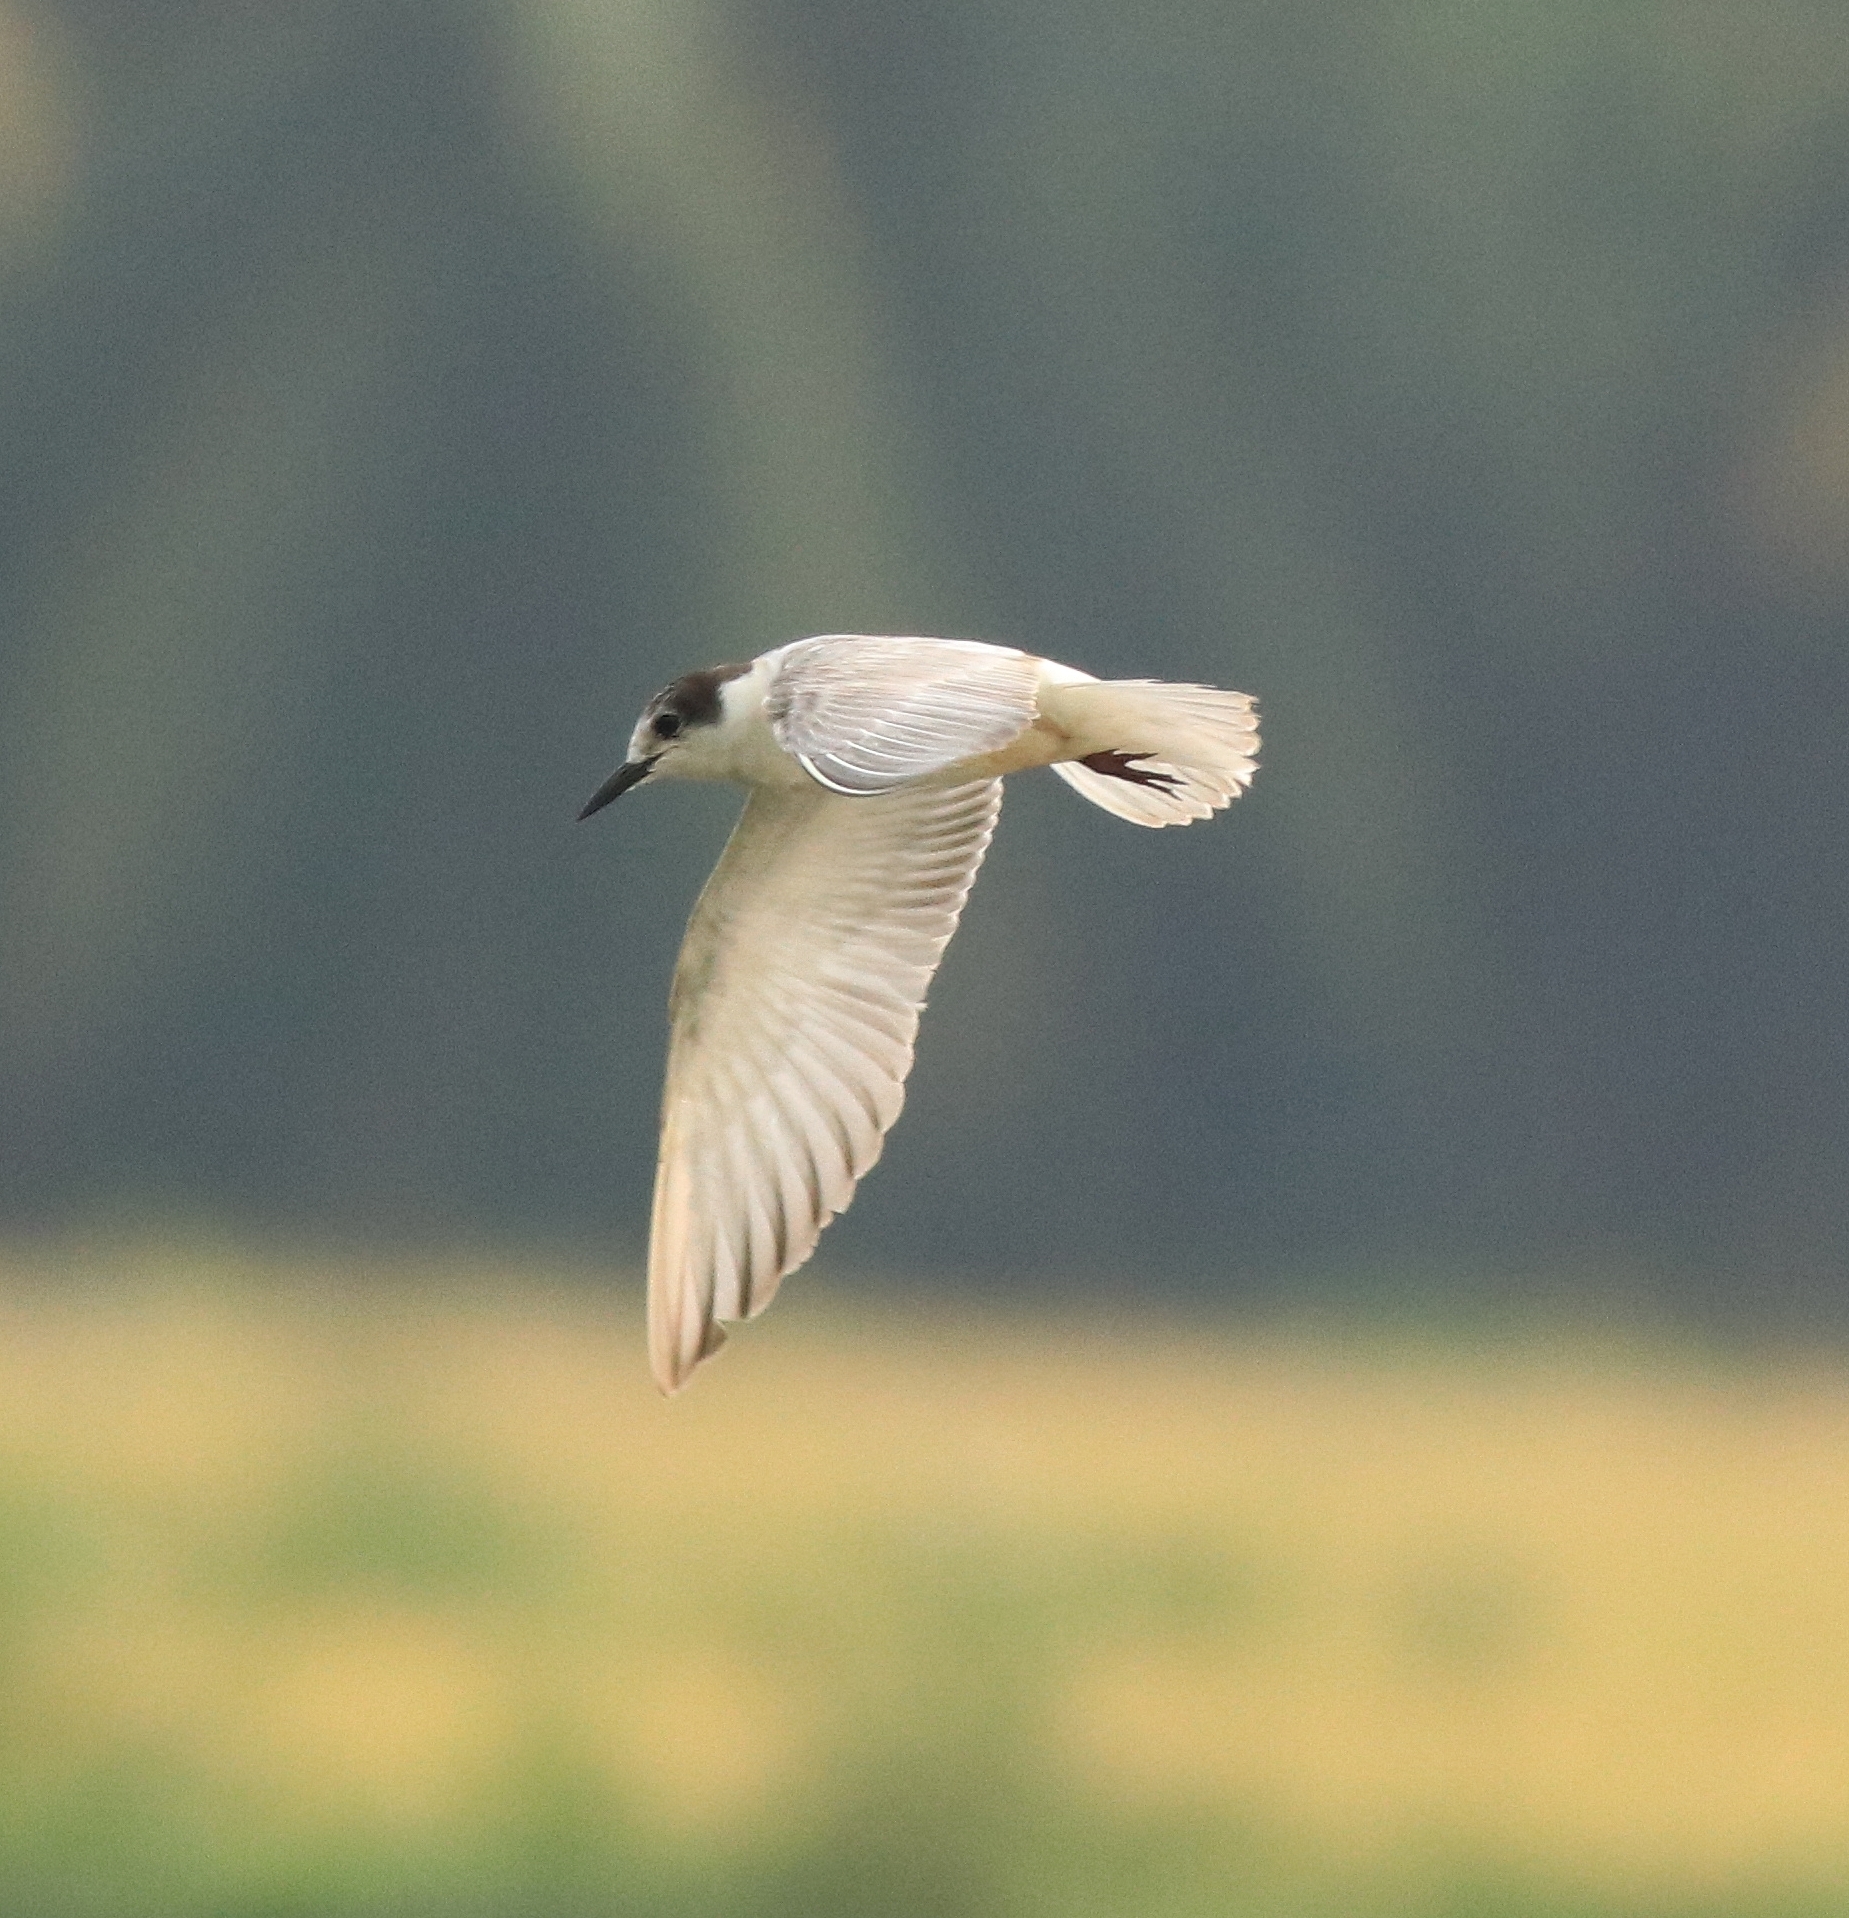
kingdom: Animalia
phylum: Chordata
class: Aves
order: Charadriiformes
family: Laridae
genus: Chlidonias
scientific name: Chlidonias hybrida
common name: Whiskered tern
